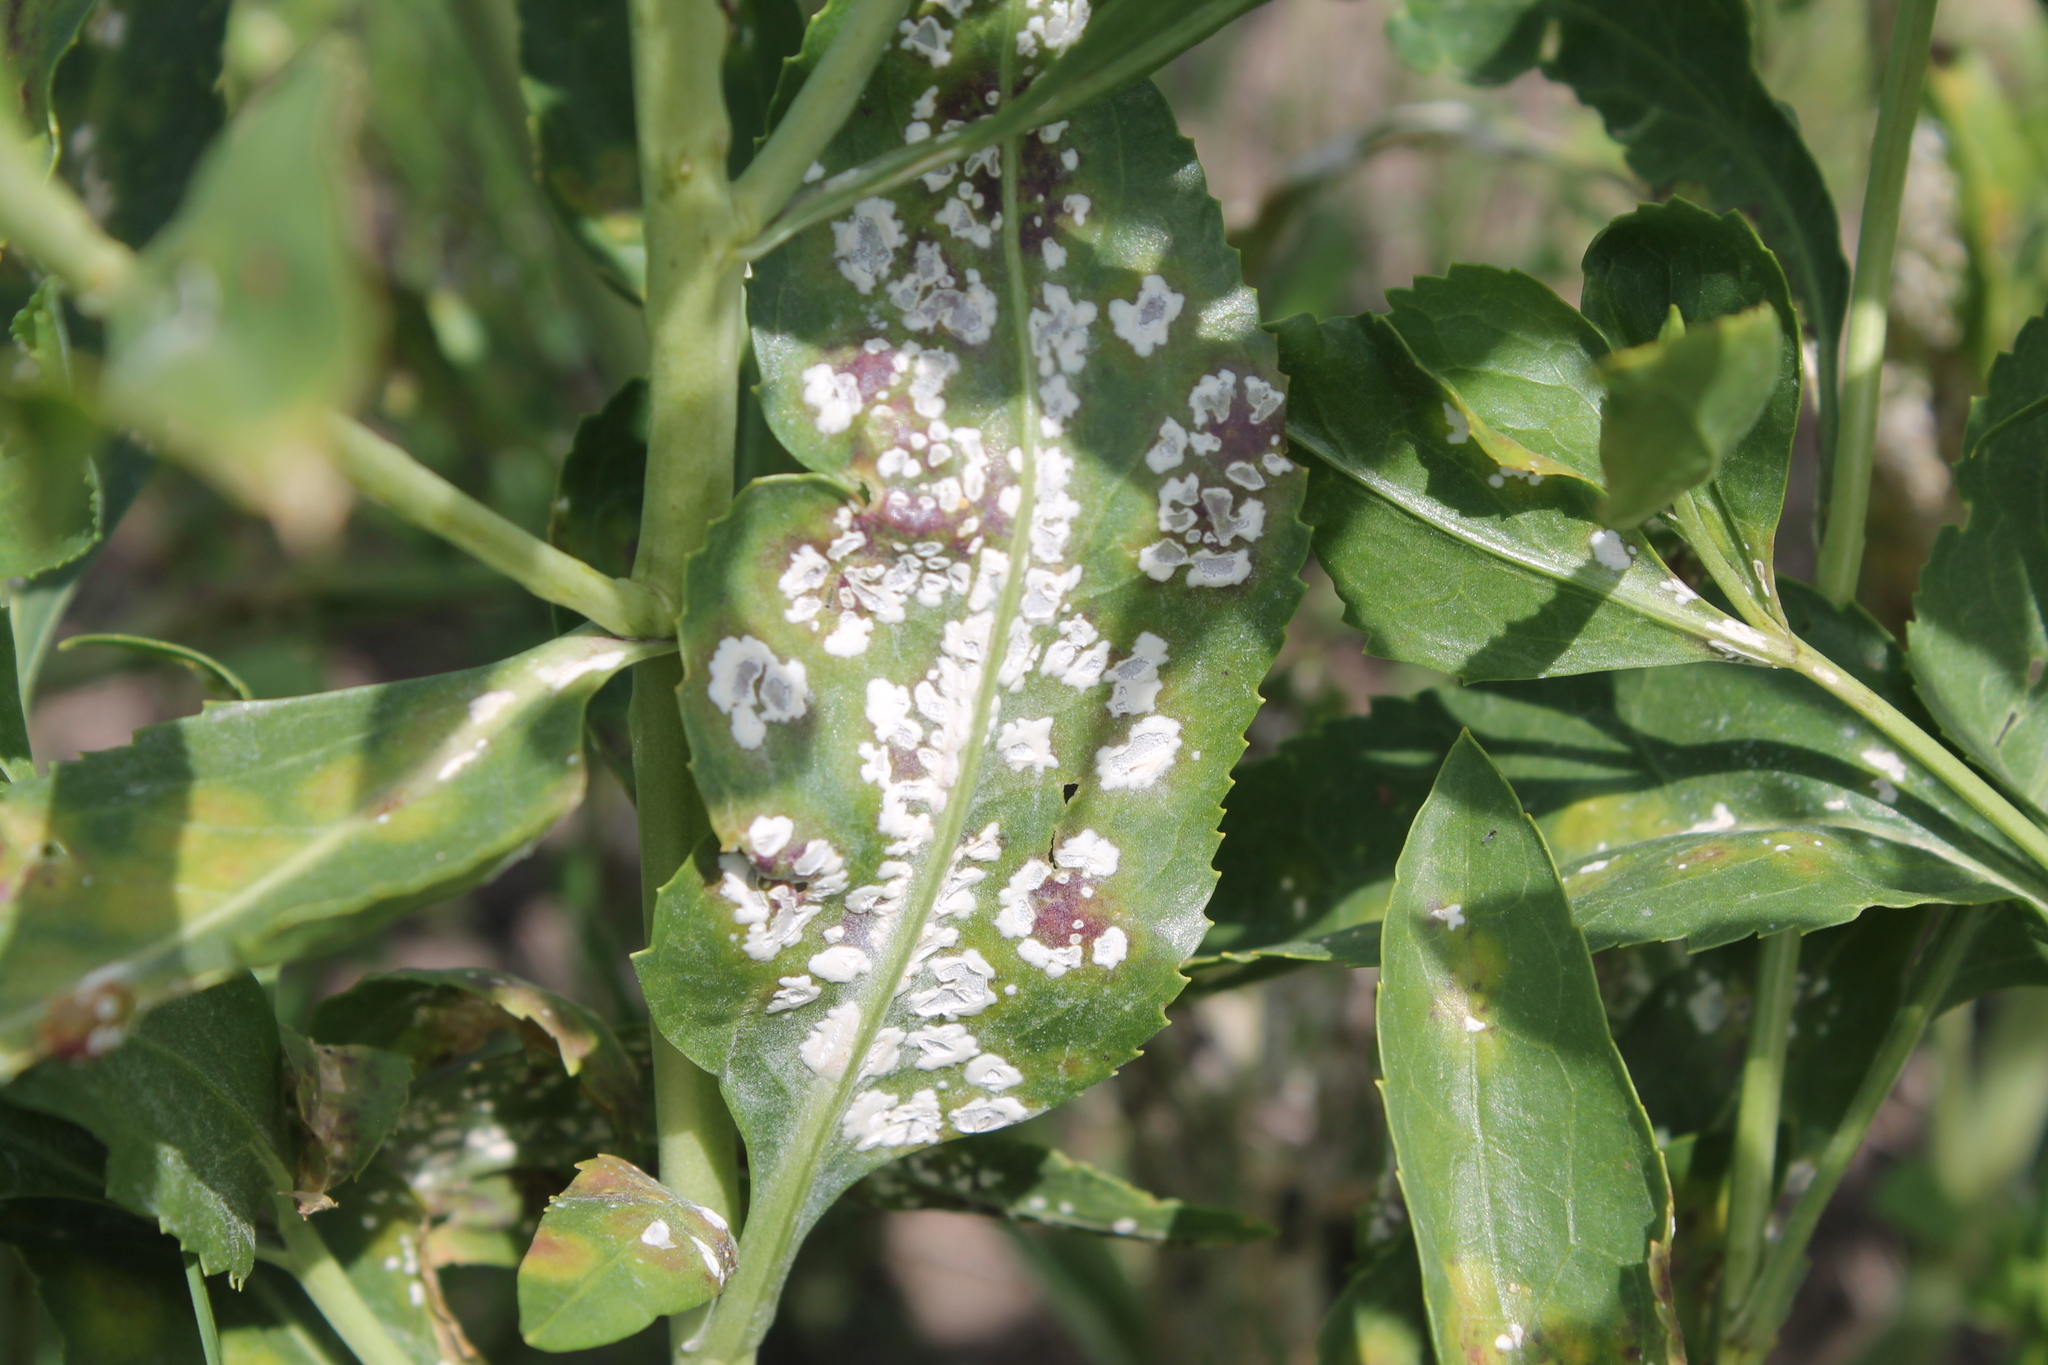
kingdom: Chromista
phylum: Oomycota
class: Peronosporea
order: Albuginales
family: Albuginaceae
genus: Albugo
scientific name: Albugo lepidii
